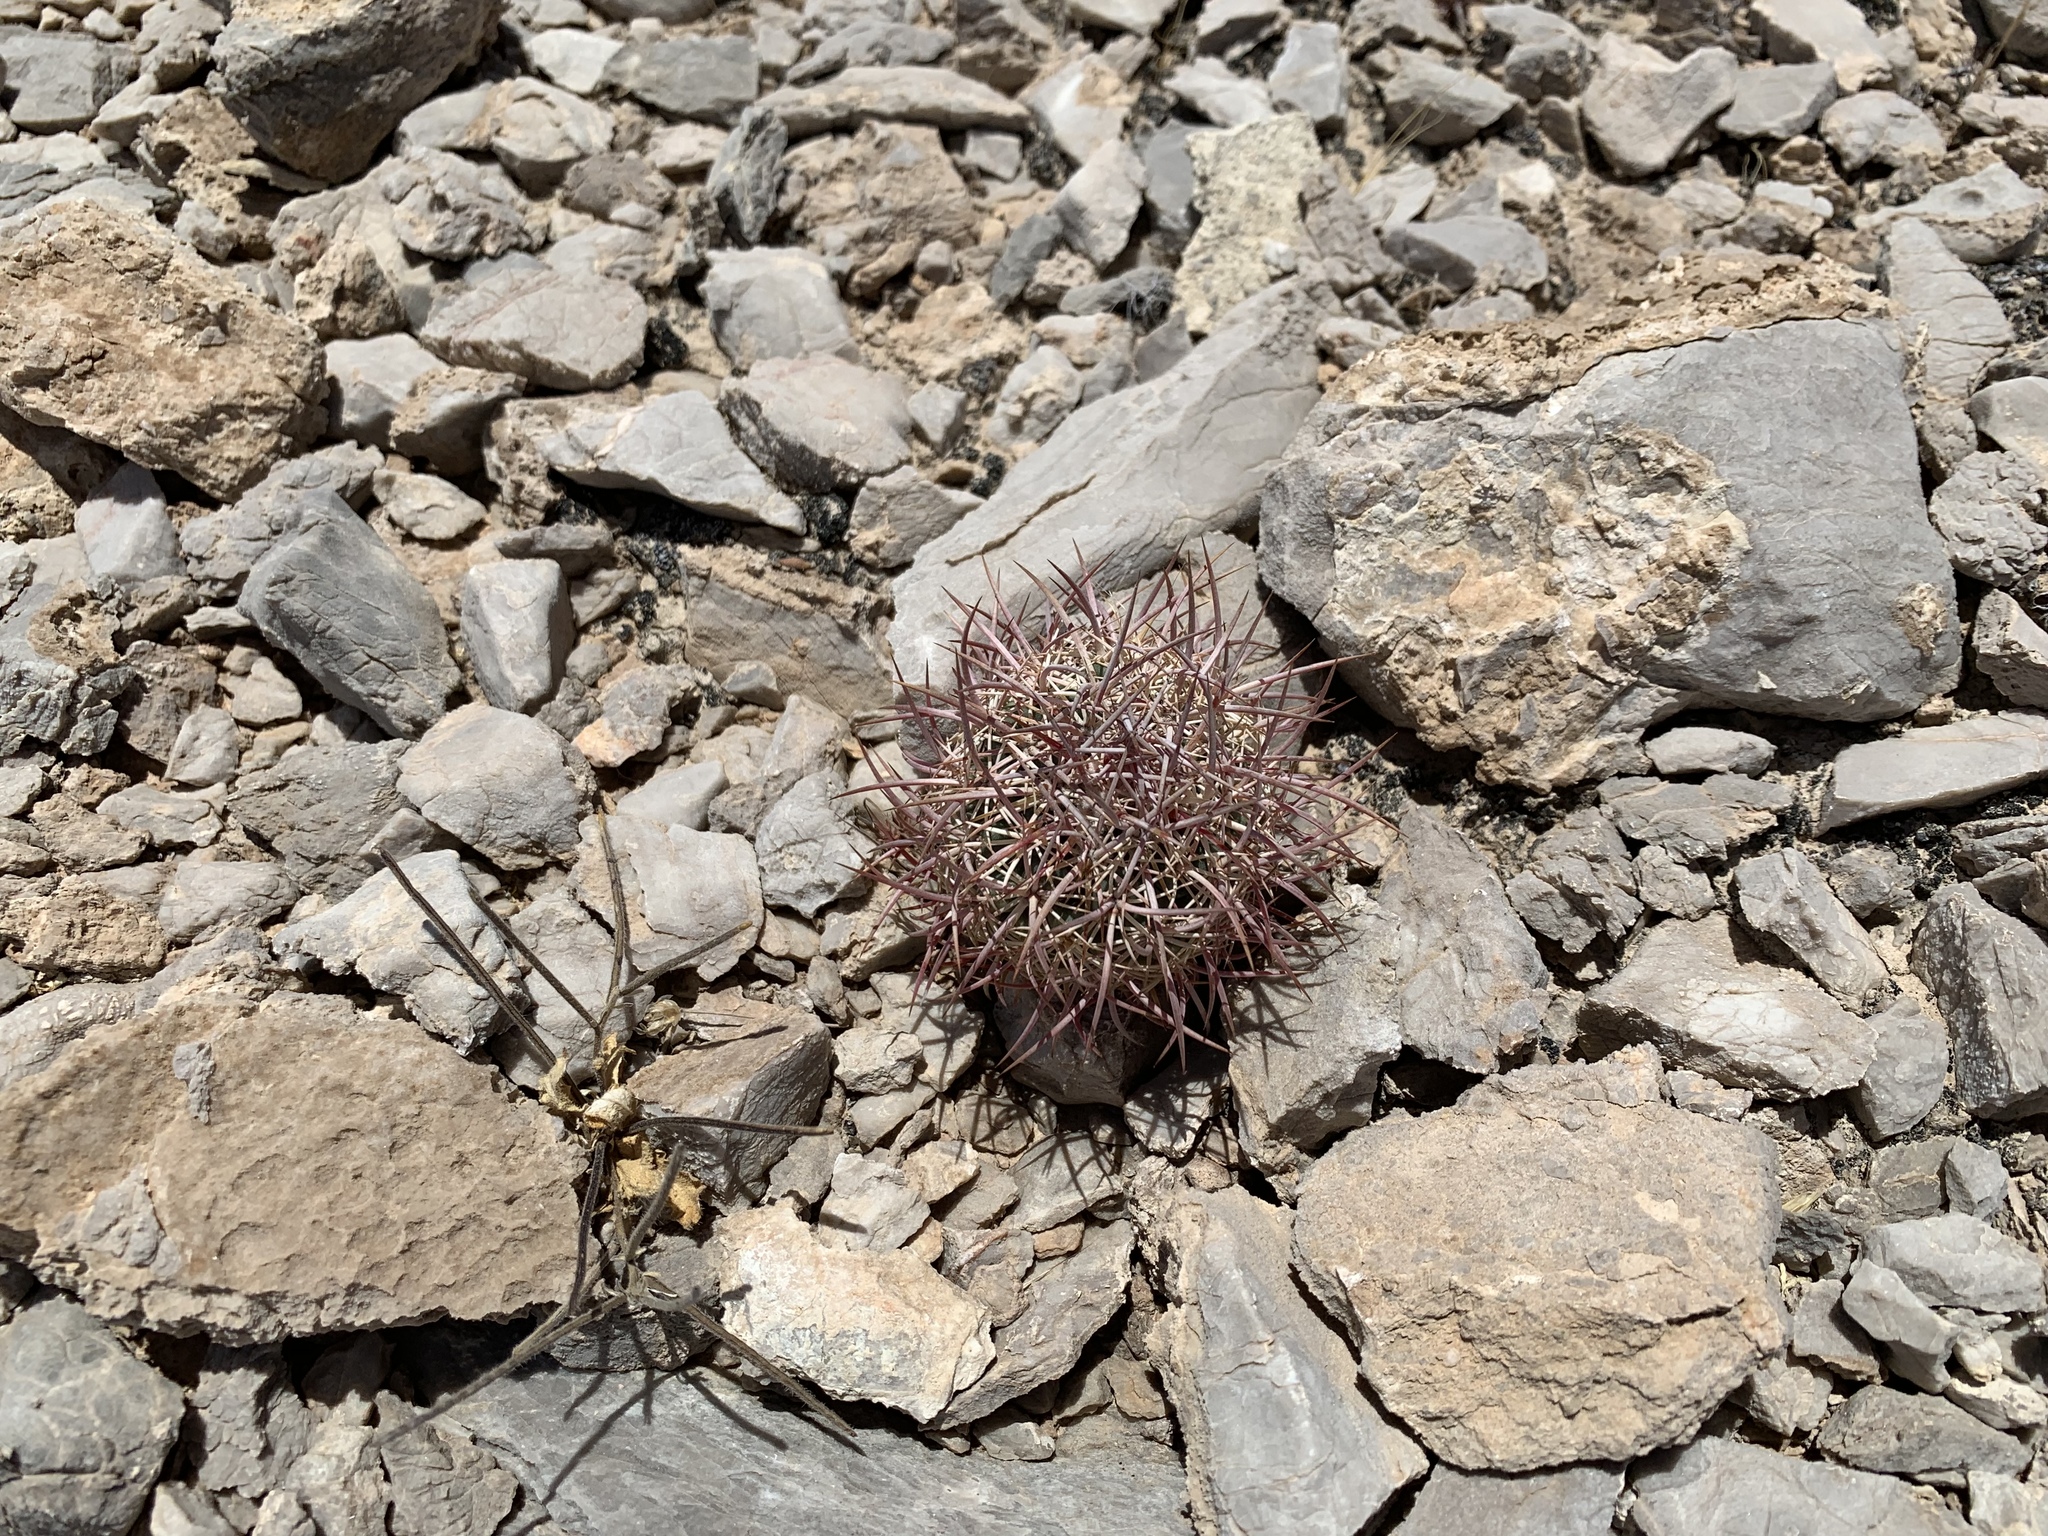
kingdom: Plantae
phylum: Tracheophyta
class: Magnoliopsida
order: Caryophyllales
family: Cactaceae
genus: Sclerocactus
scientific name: Sclerocactus johnsonii
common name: Eight-spine fishhook cactus
